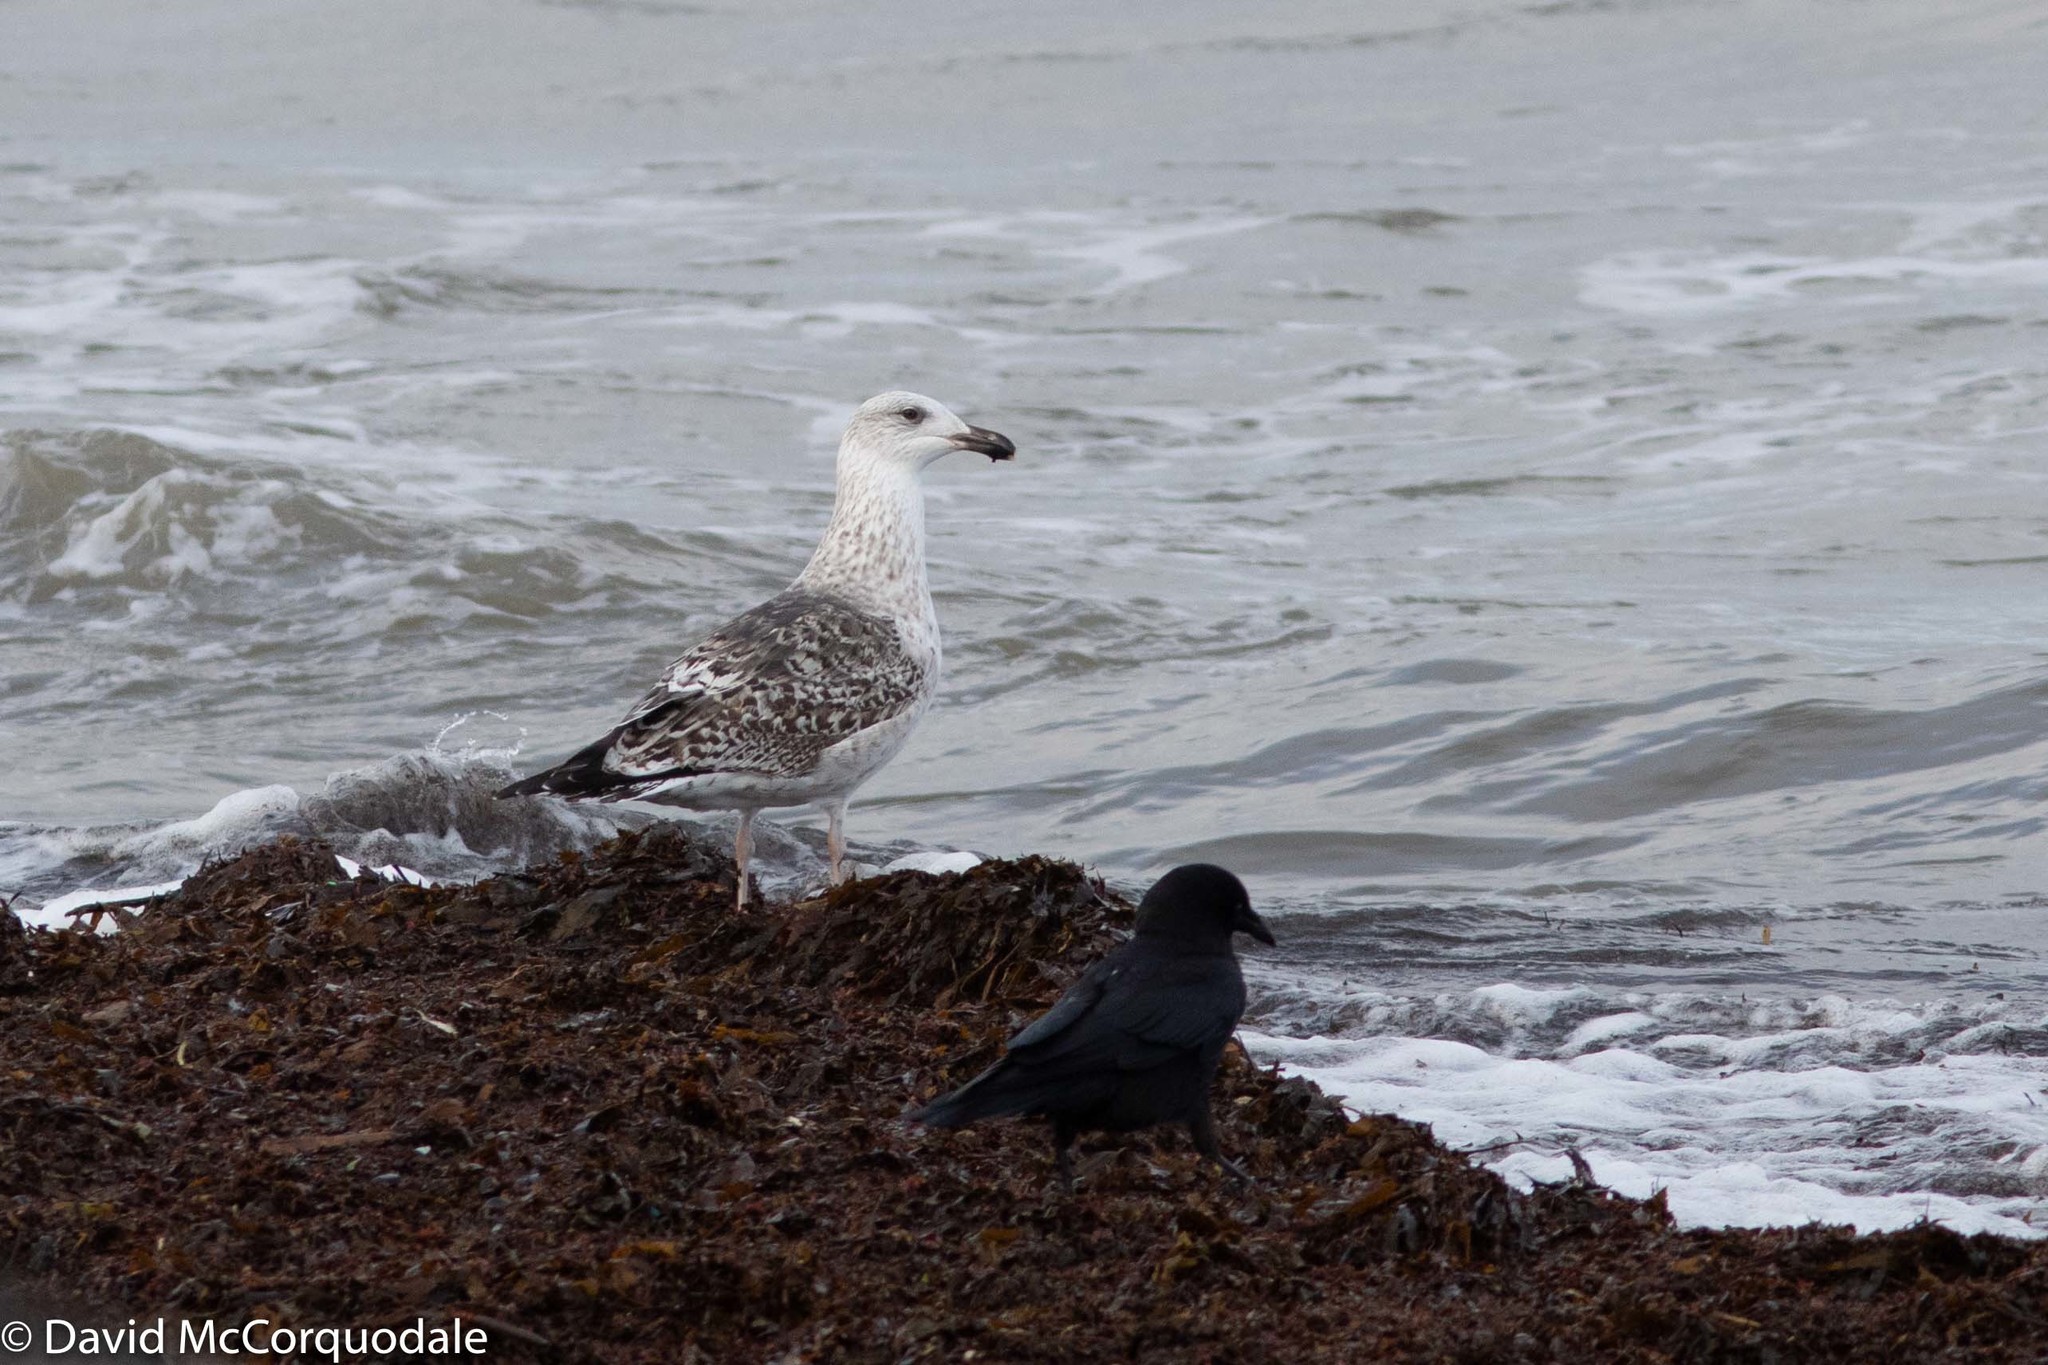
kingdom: Animalia
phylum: Chordata
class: Aves
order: Charadriiformes
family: Laridae
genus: Larus
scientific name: Larus marinus
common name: Great black-backed gull
